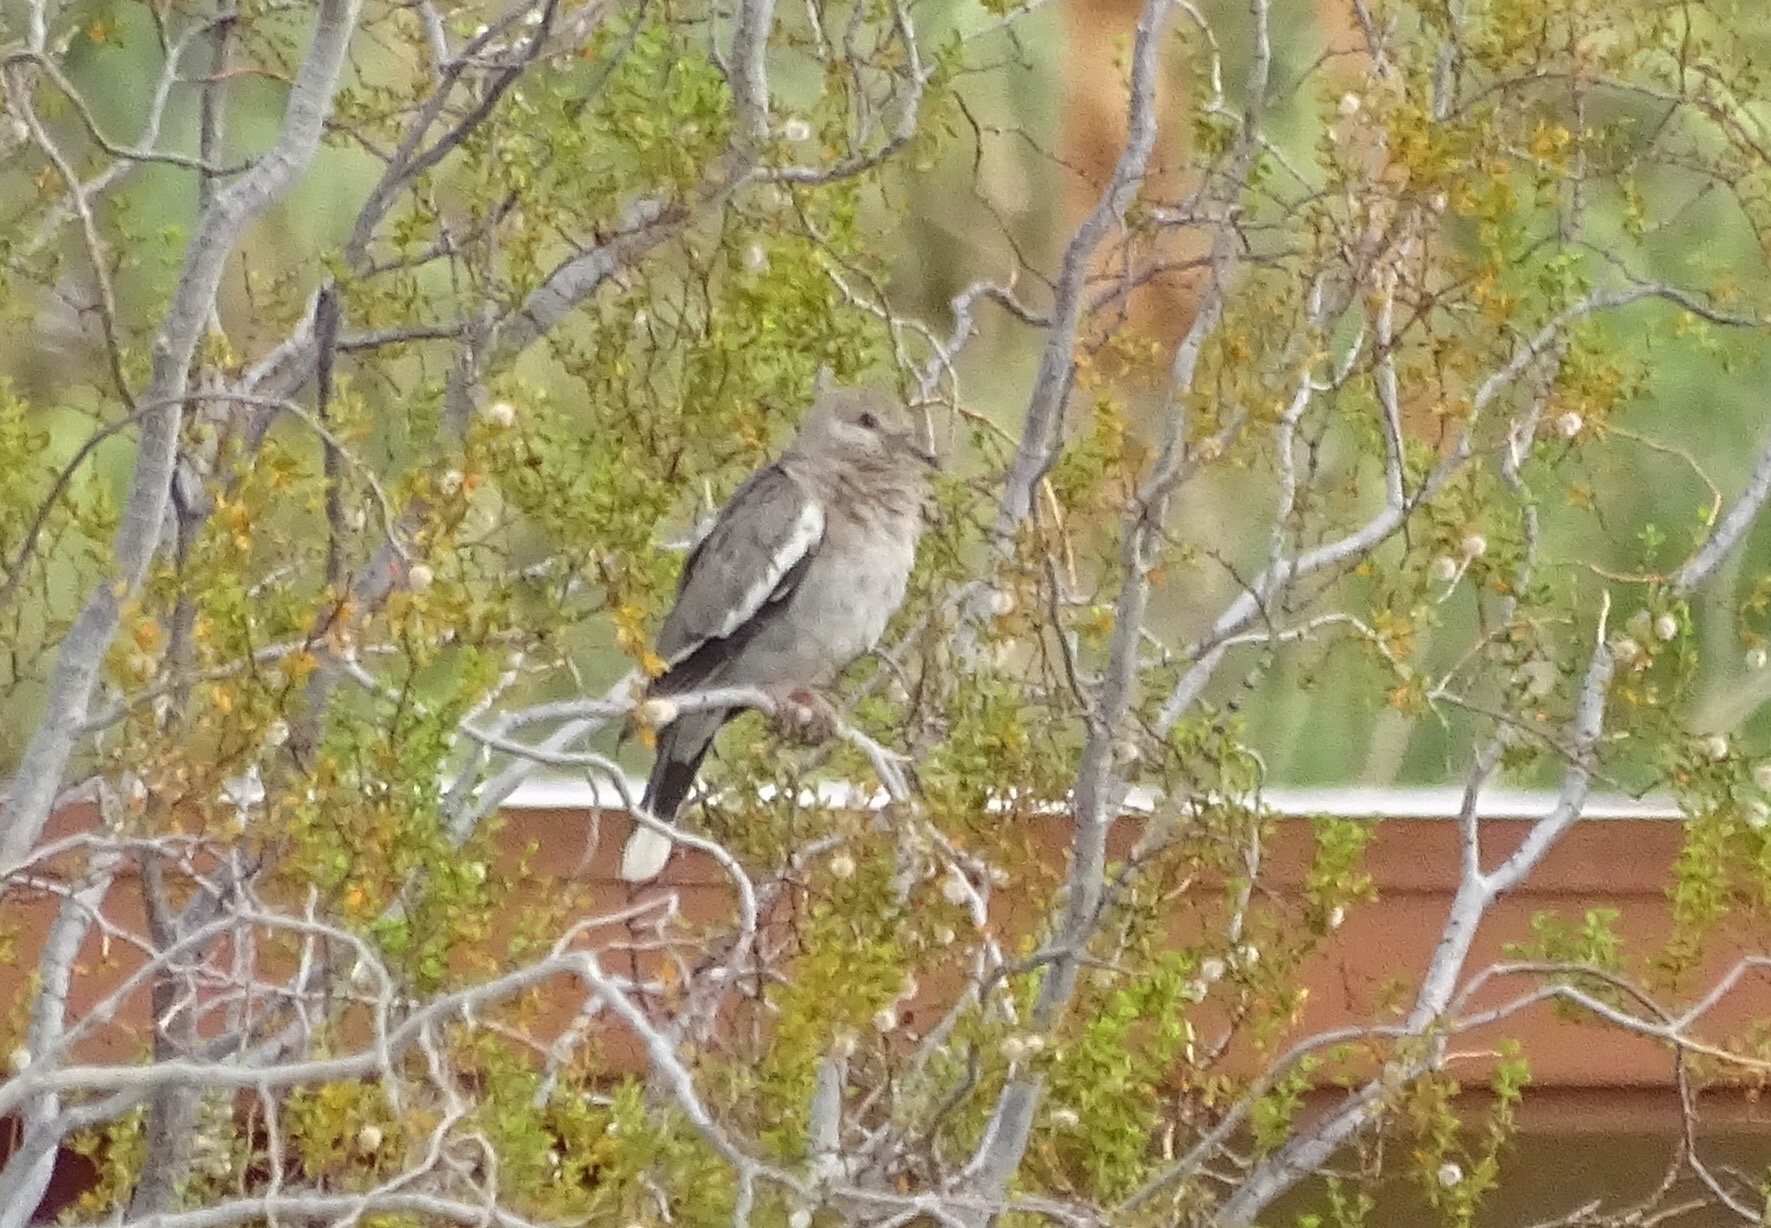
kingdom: Animalia
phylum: Chordata
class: Aves
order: Columbiformes
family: Columbidae
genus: Zenaida
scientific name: Zenaida asiatica
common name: White-winged dove
